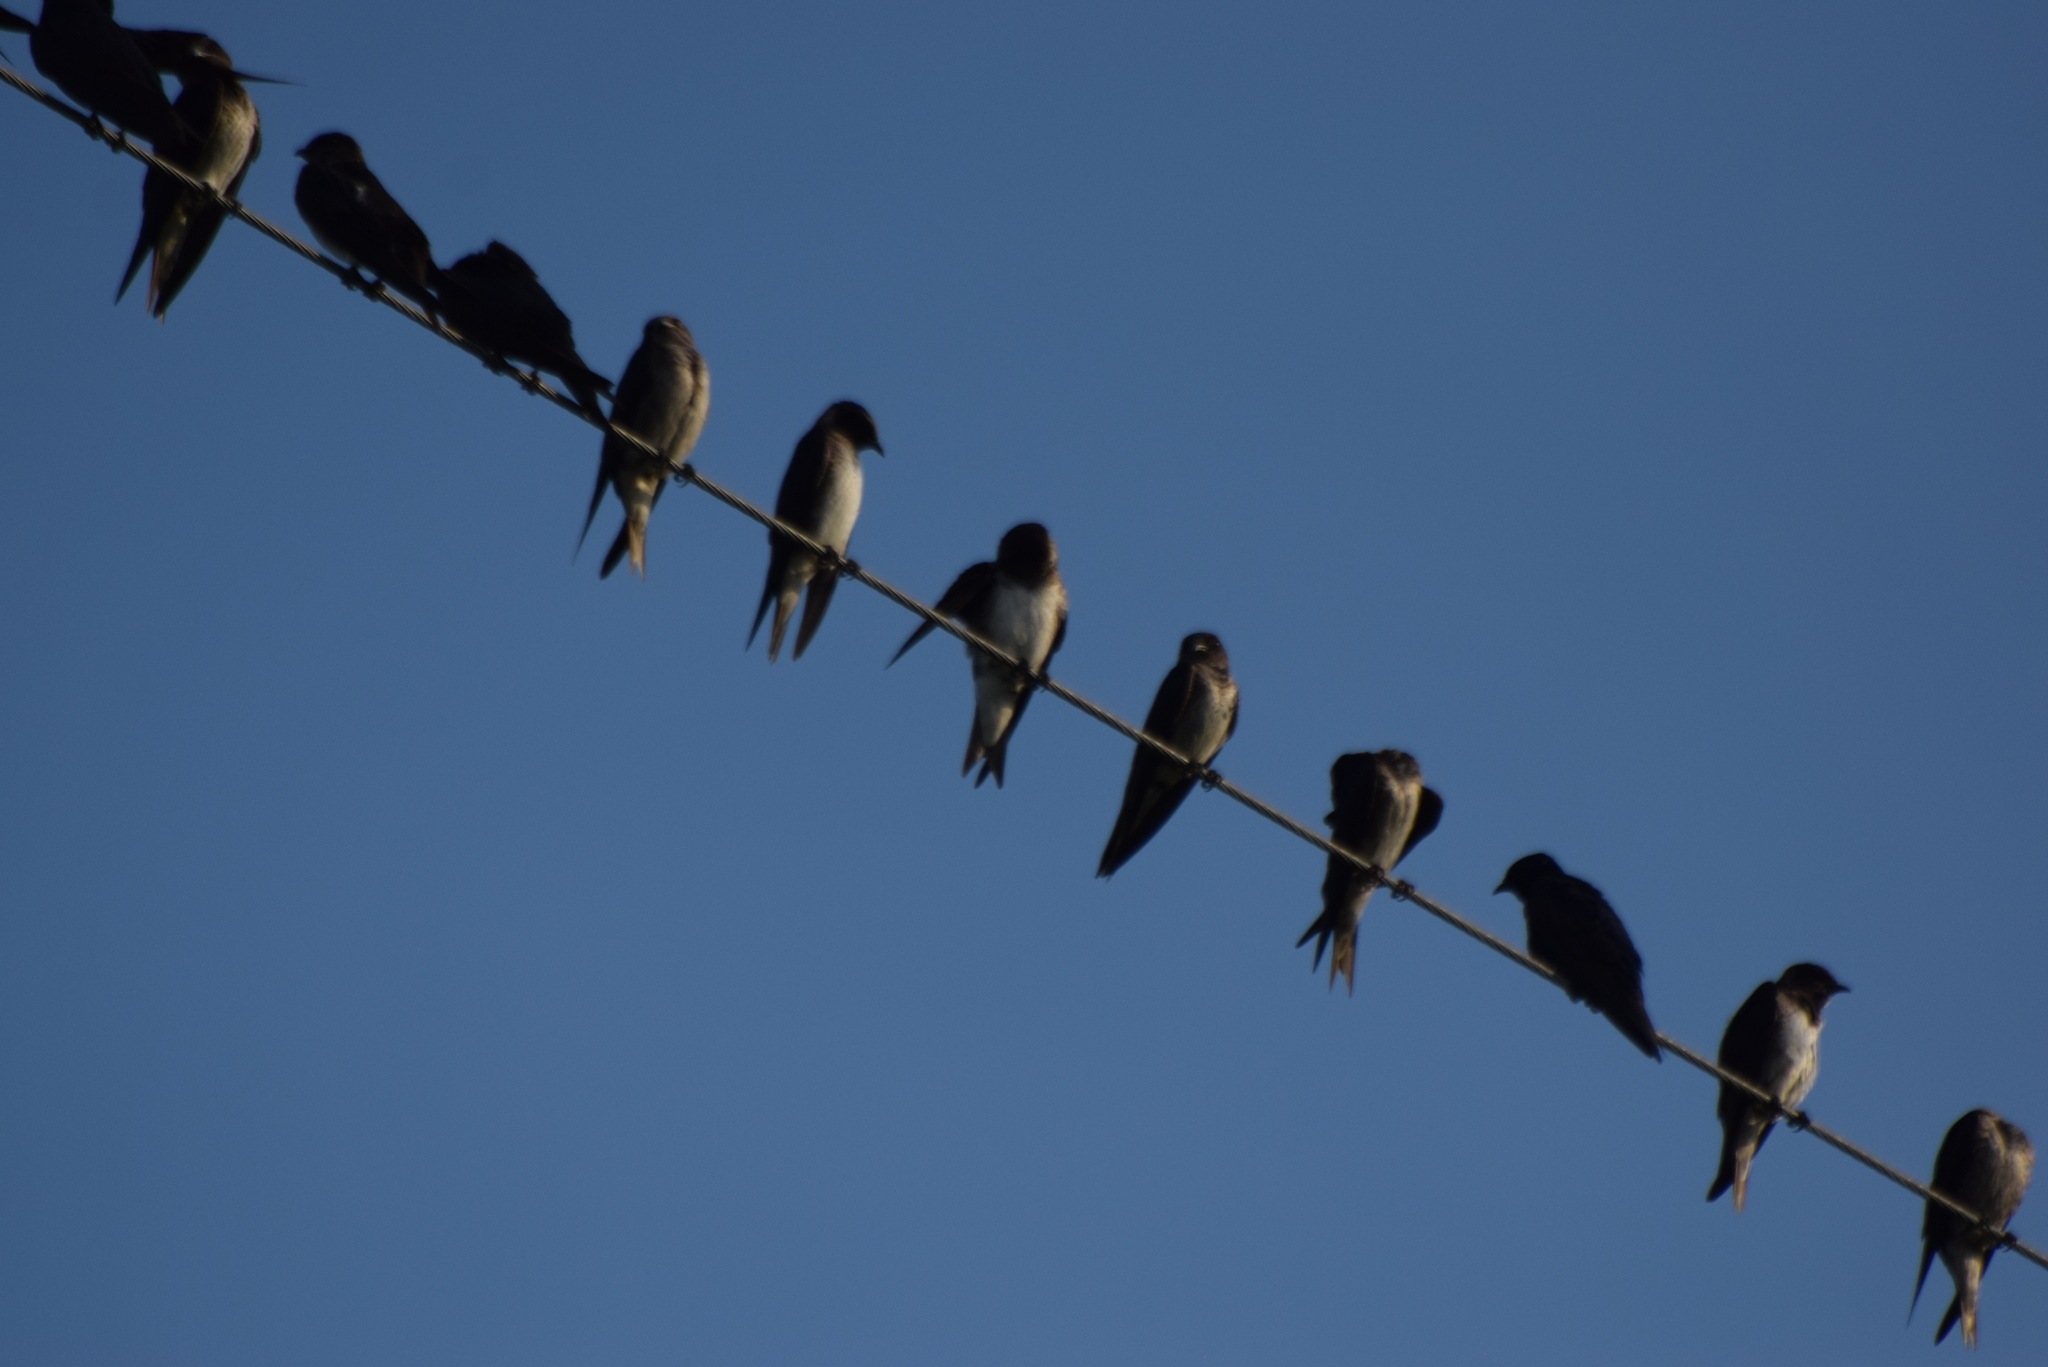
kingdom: Animalia
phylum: Chordata
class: Aves
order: Passeriformes
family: Hirundinidae
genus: Hirundo
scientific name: Hirundo rustica
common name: Barn swallow
